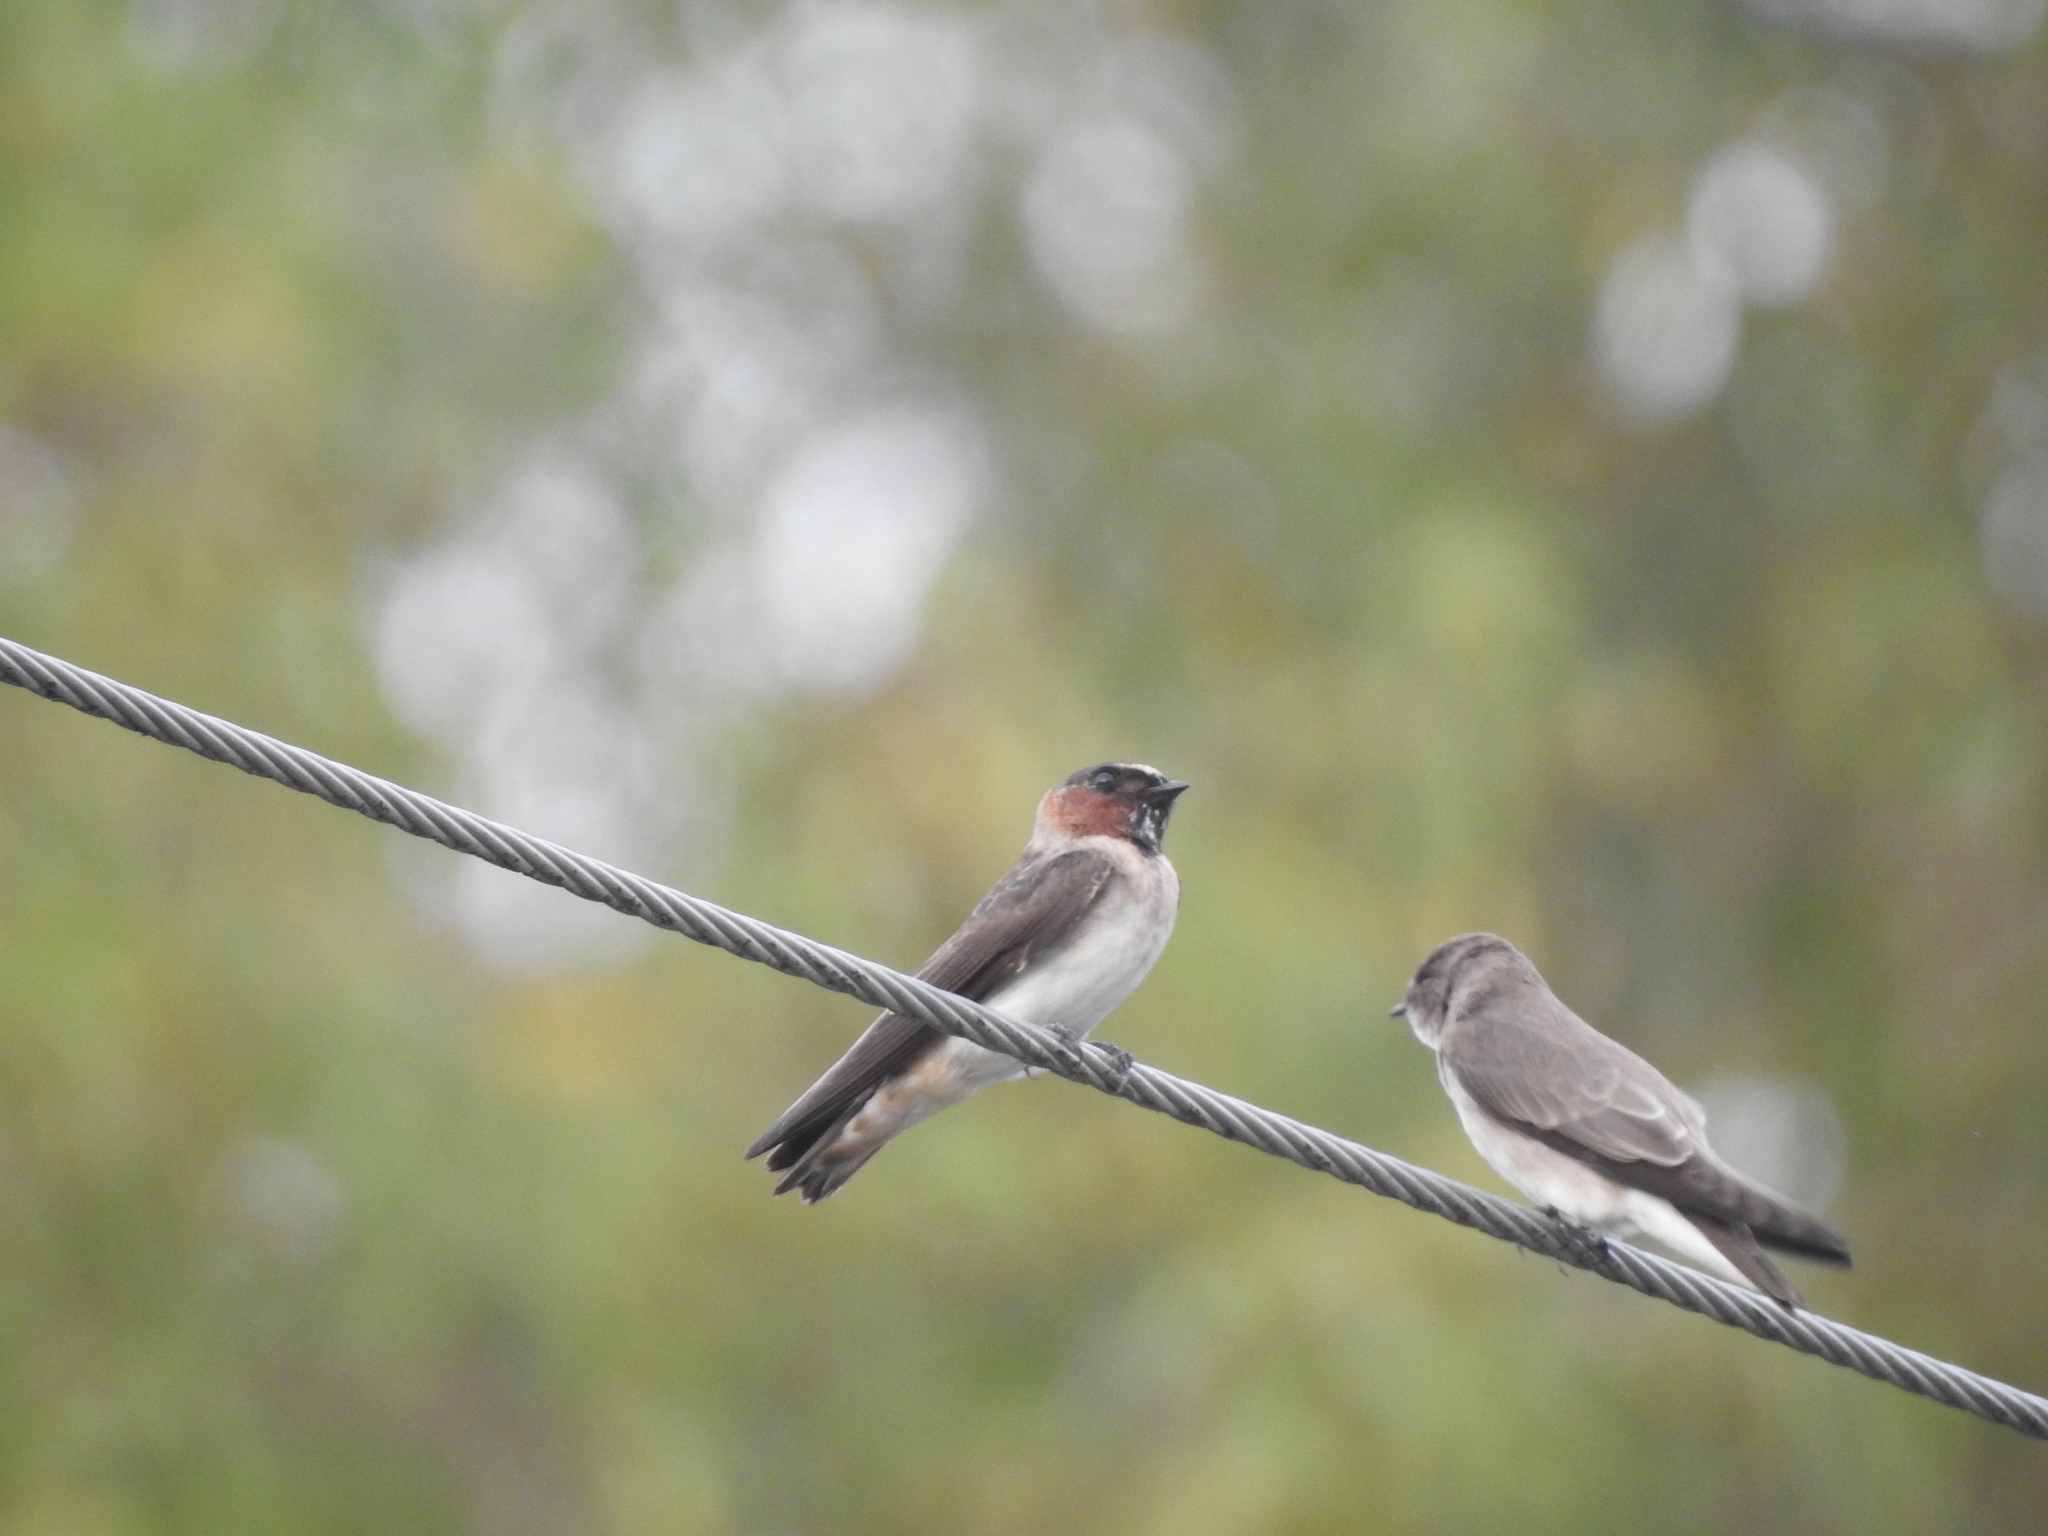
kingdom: Animalia
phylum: Chordata
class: Aves
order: Passeriformes
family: Hirundinidae
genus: Petrochelidon
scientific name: Petrochelidon pyrrhonota
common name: American cliff swallow
